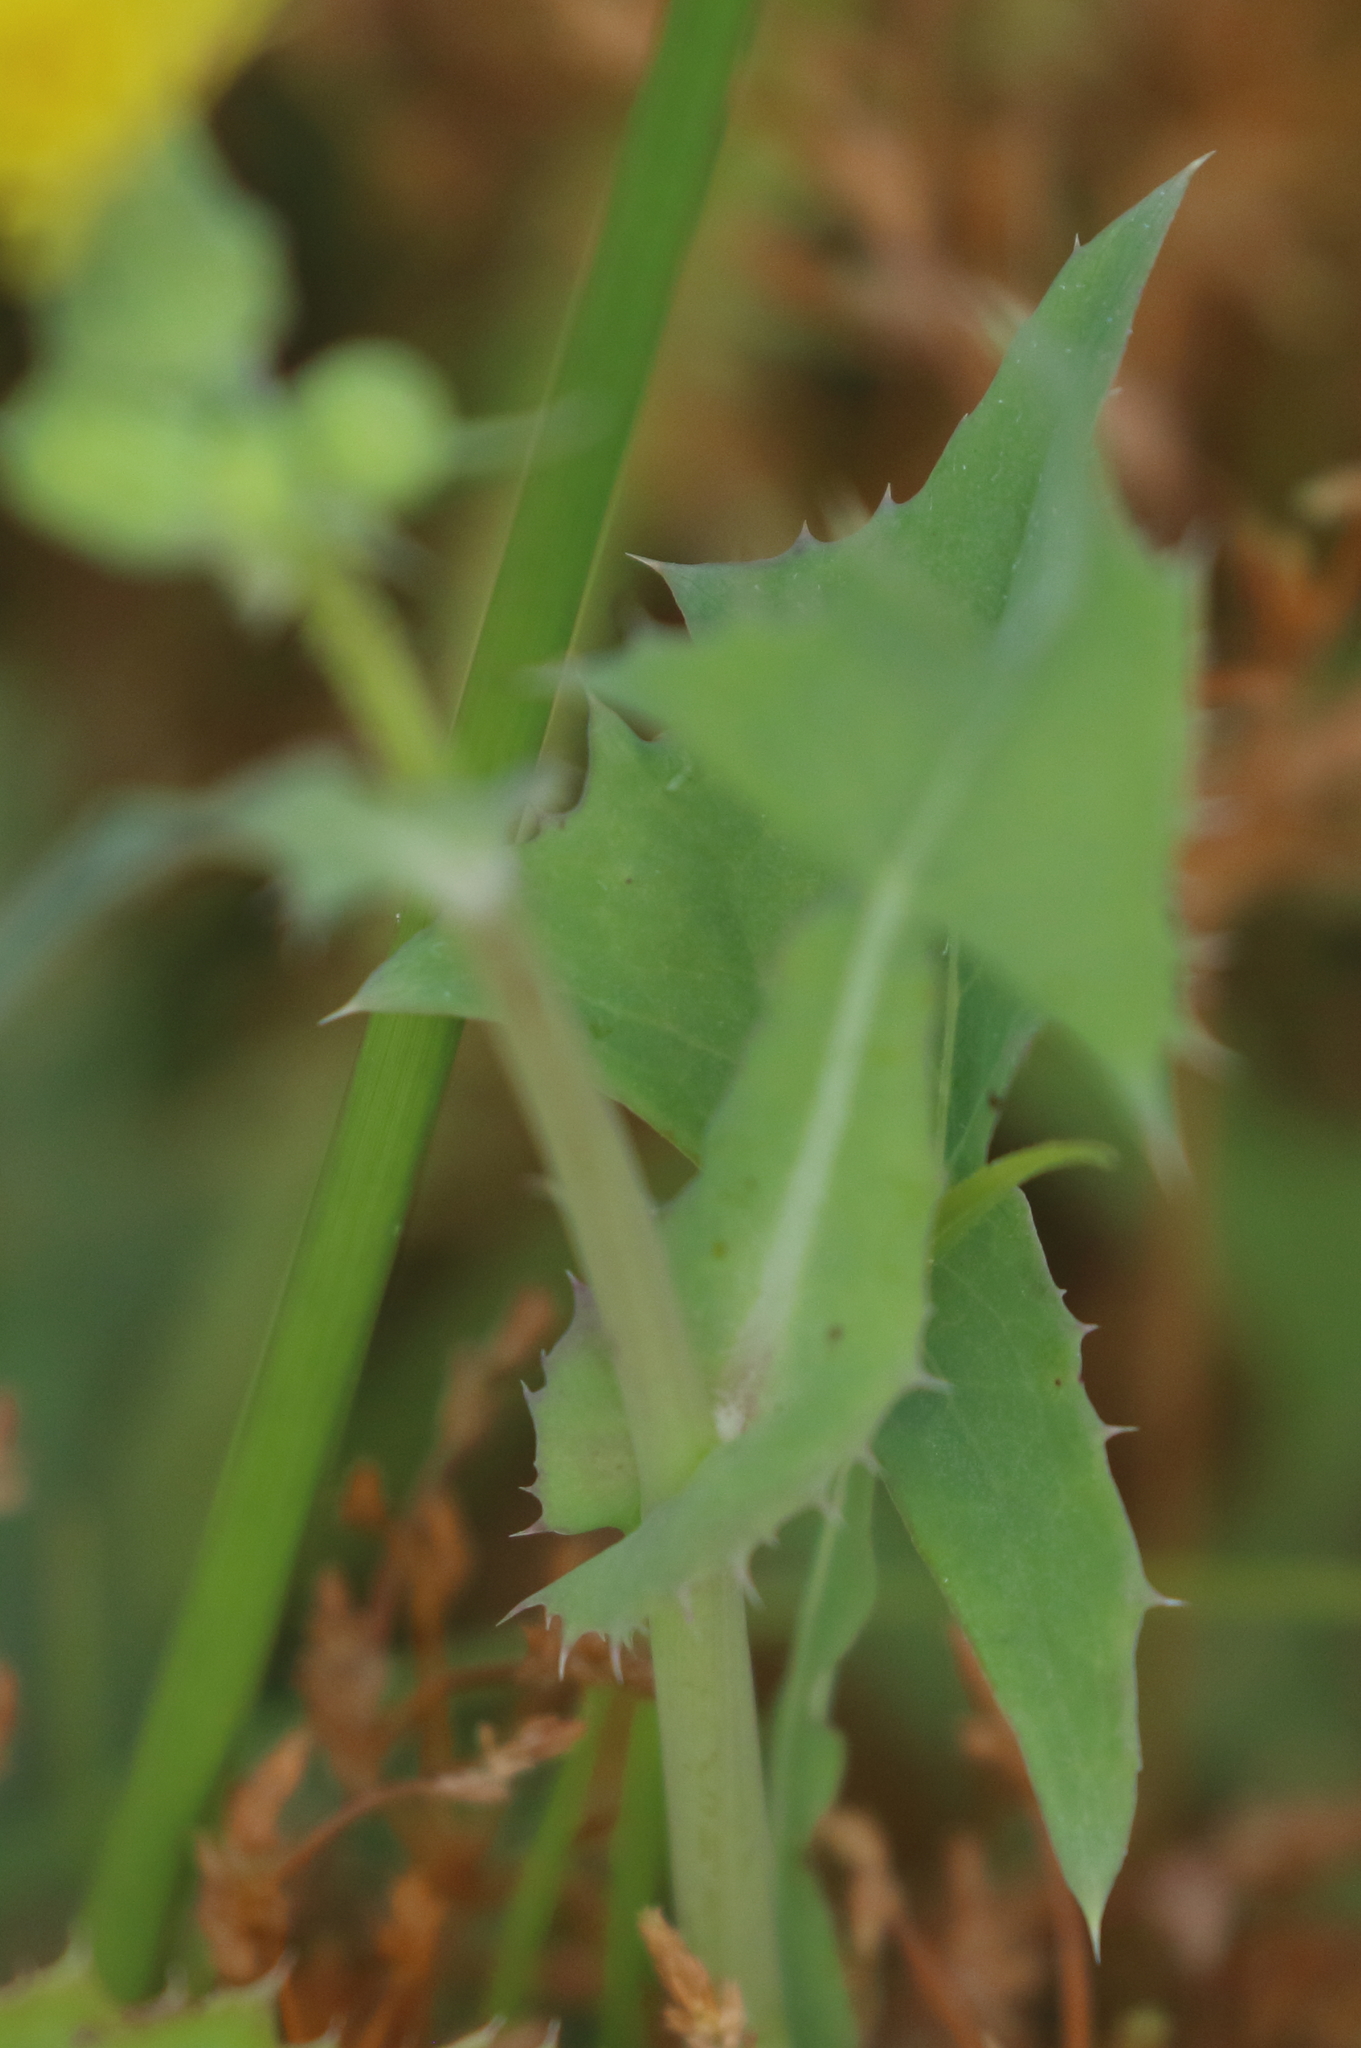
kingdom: Plantae
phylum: Tracheophyta
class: Magnoliopsida
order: Asterales
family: Asteraceae
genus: Sonchus
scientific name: Sonchus oleraceus
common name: Common sowthistle
